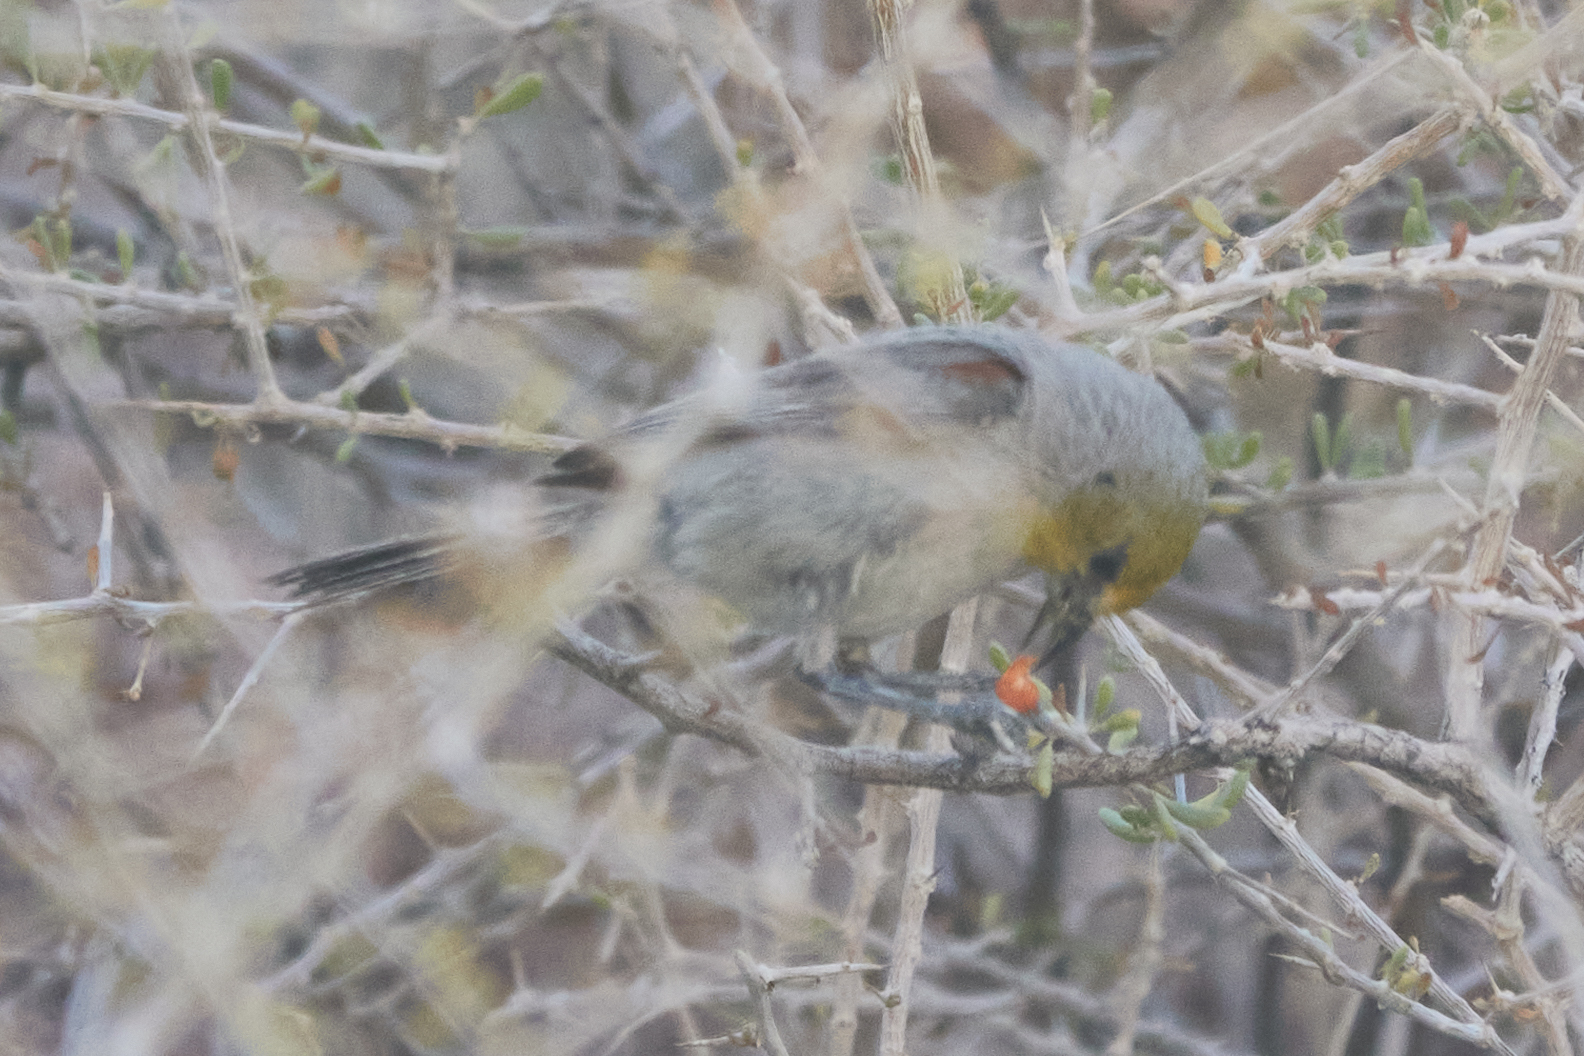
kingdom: Animalia
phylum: Chordata
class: Aves
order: Passeriformes
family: Remizidae
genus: Auriparus
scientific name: Auriparus flaviceps
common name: Verdin
